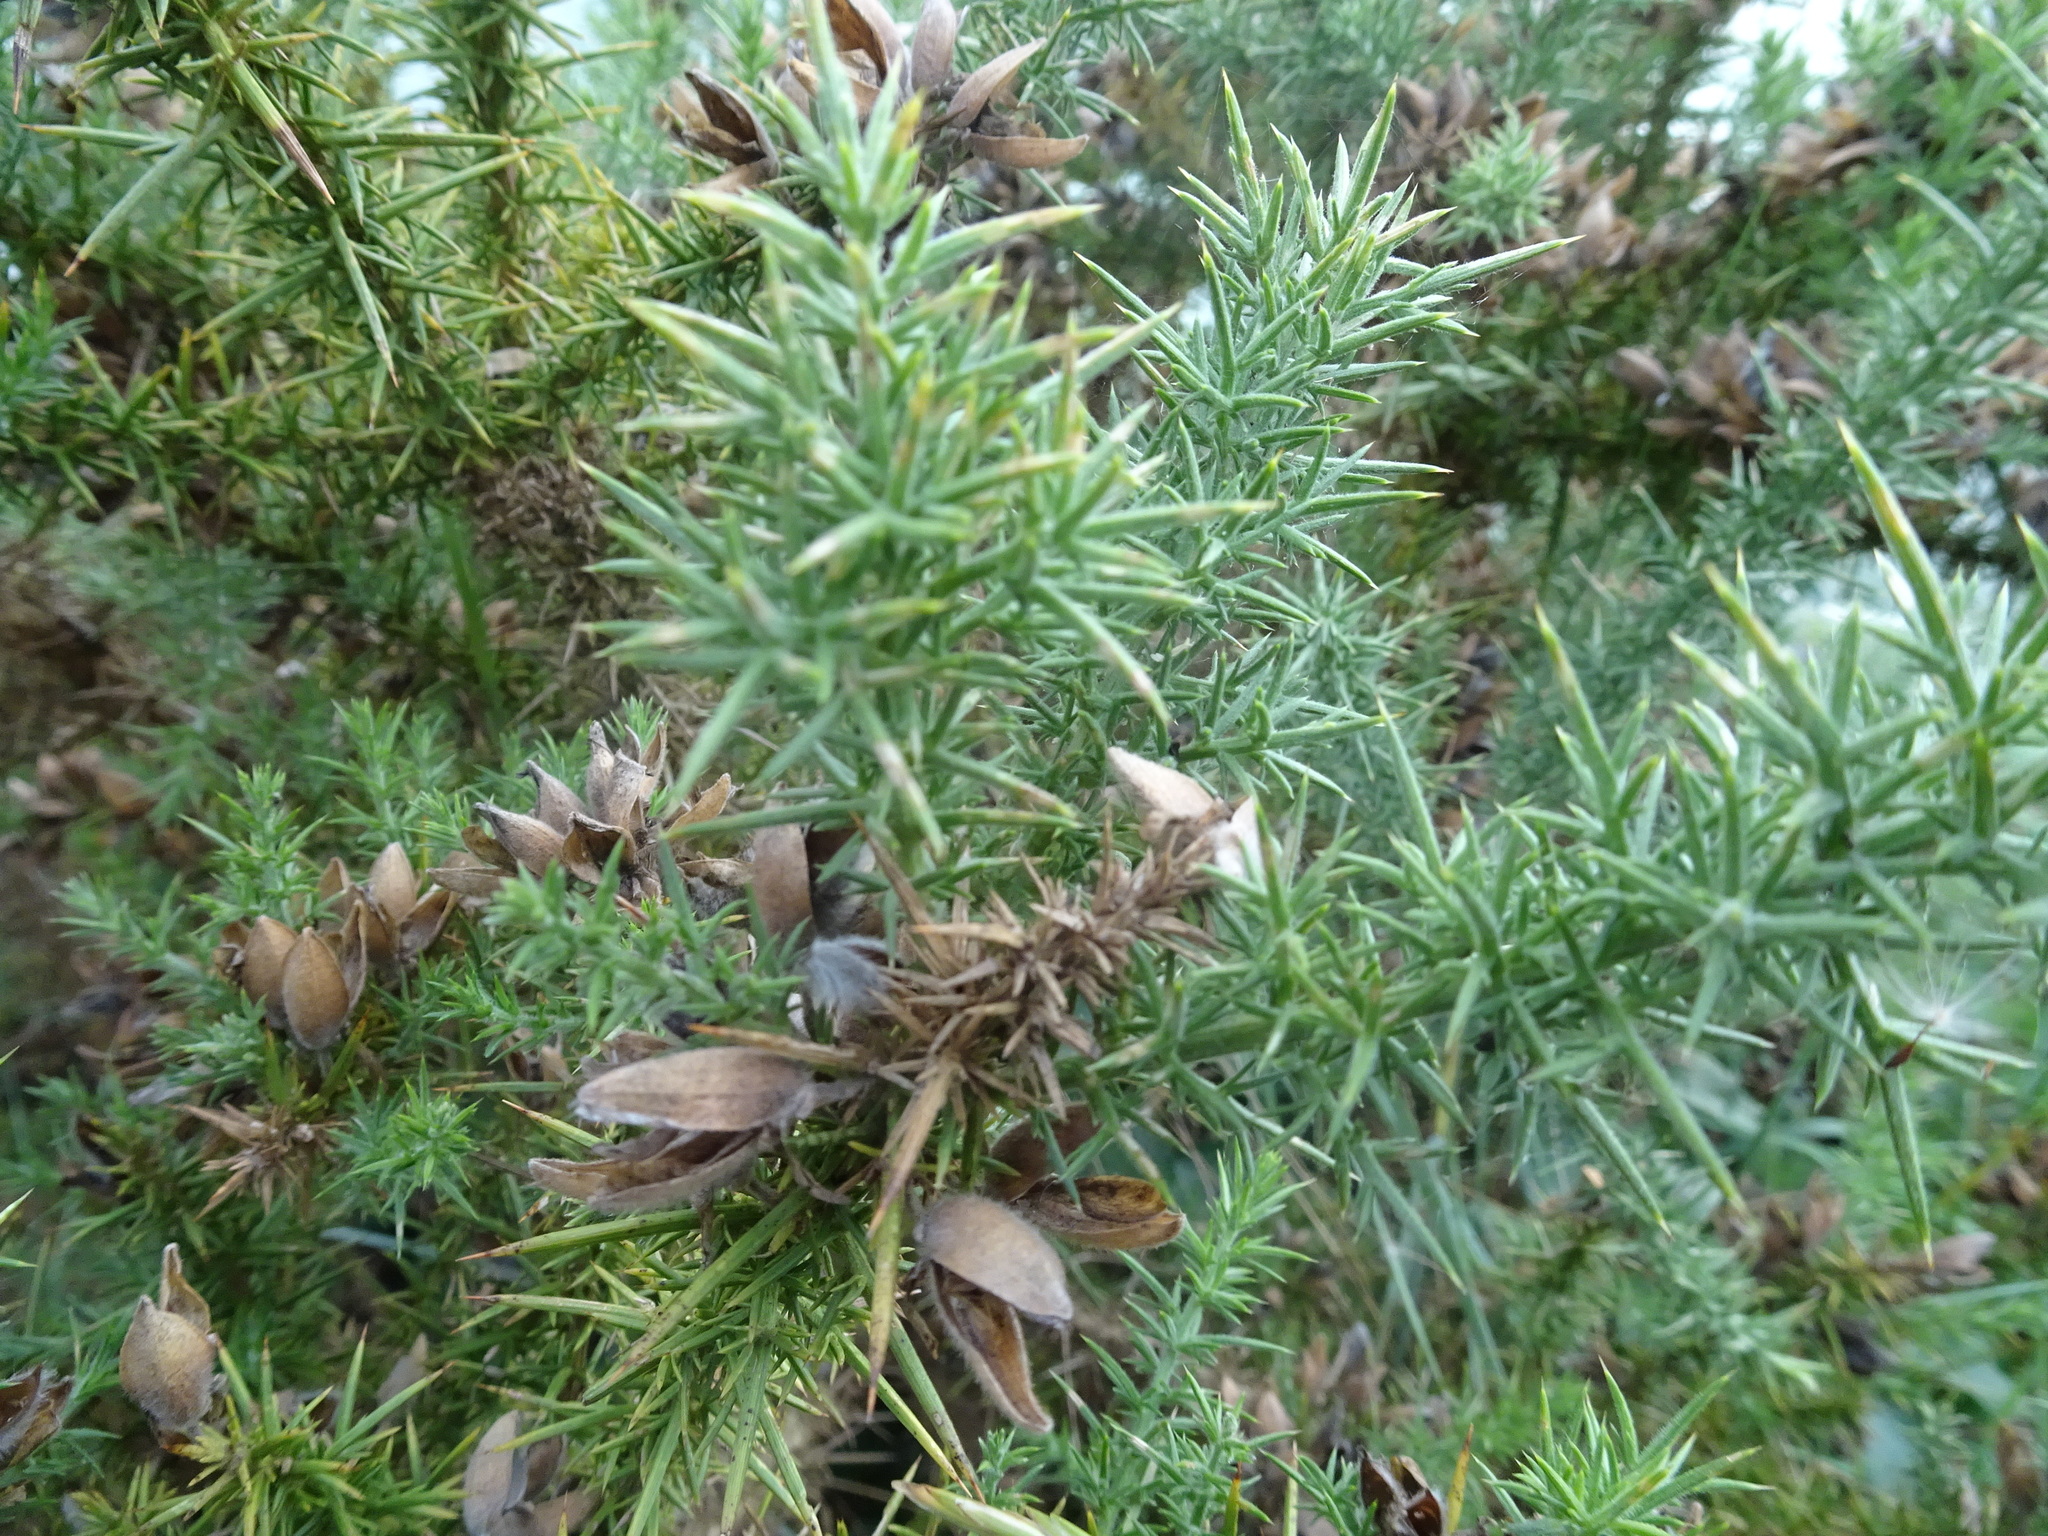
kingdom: Plantae
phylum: Tracheophyta
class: Magnoliopsida
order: Fabales
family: Fabaceae
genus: Ulex
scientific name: Ulex europaeus
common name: Common gorse
